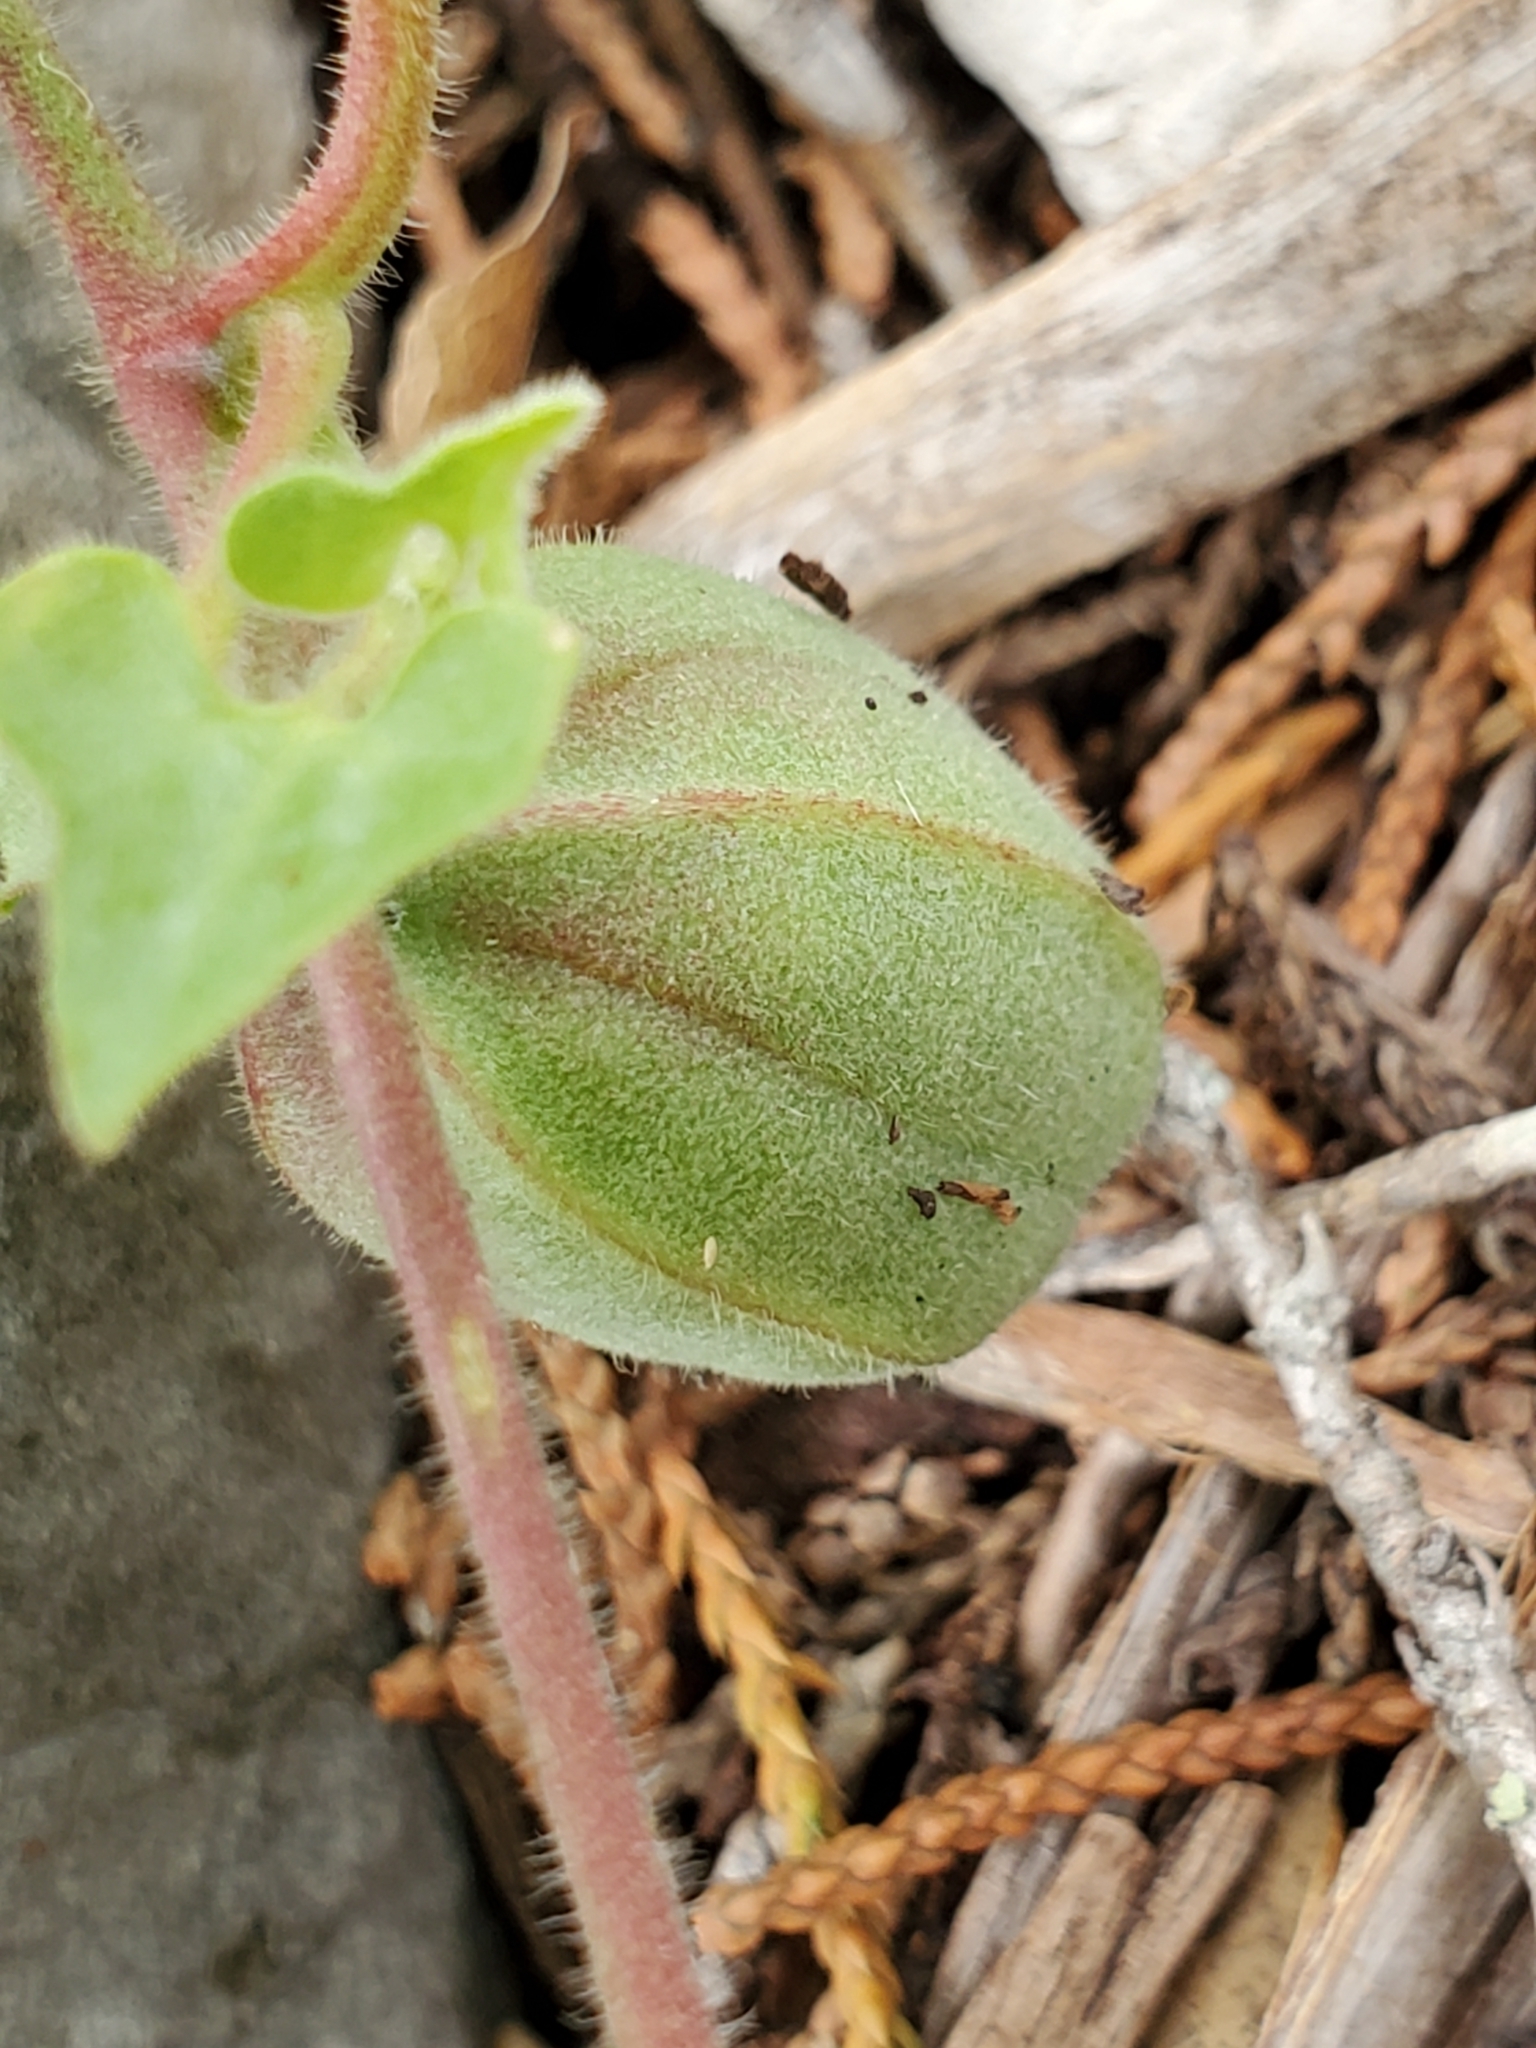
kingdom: Plantae
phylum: Tracheophyta
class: Magnoliopsida
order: Piperales
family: Aristolochiaceae
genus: Aristolochia
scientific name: Aristolochia coryi
